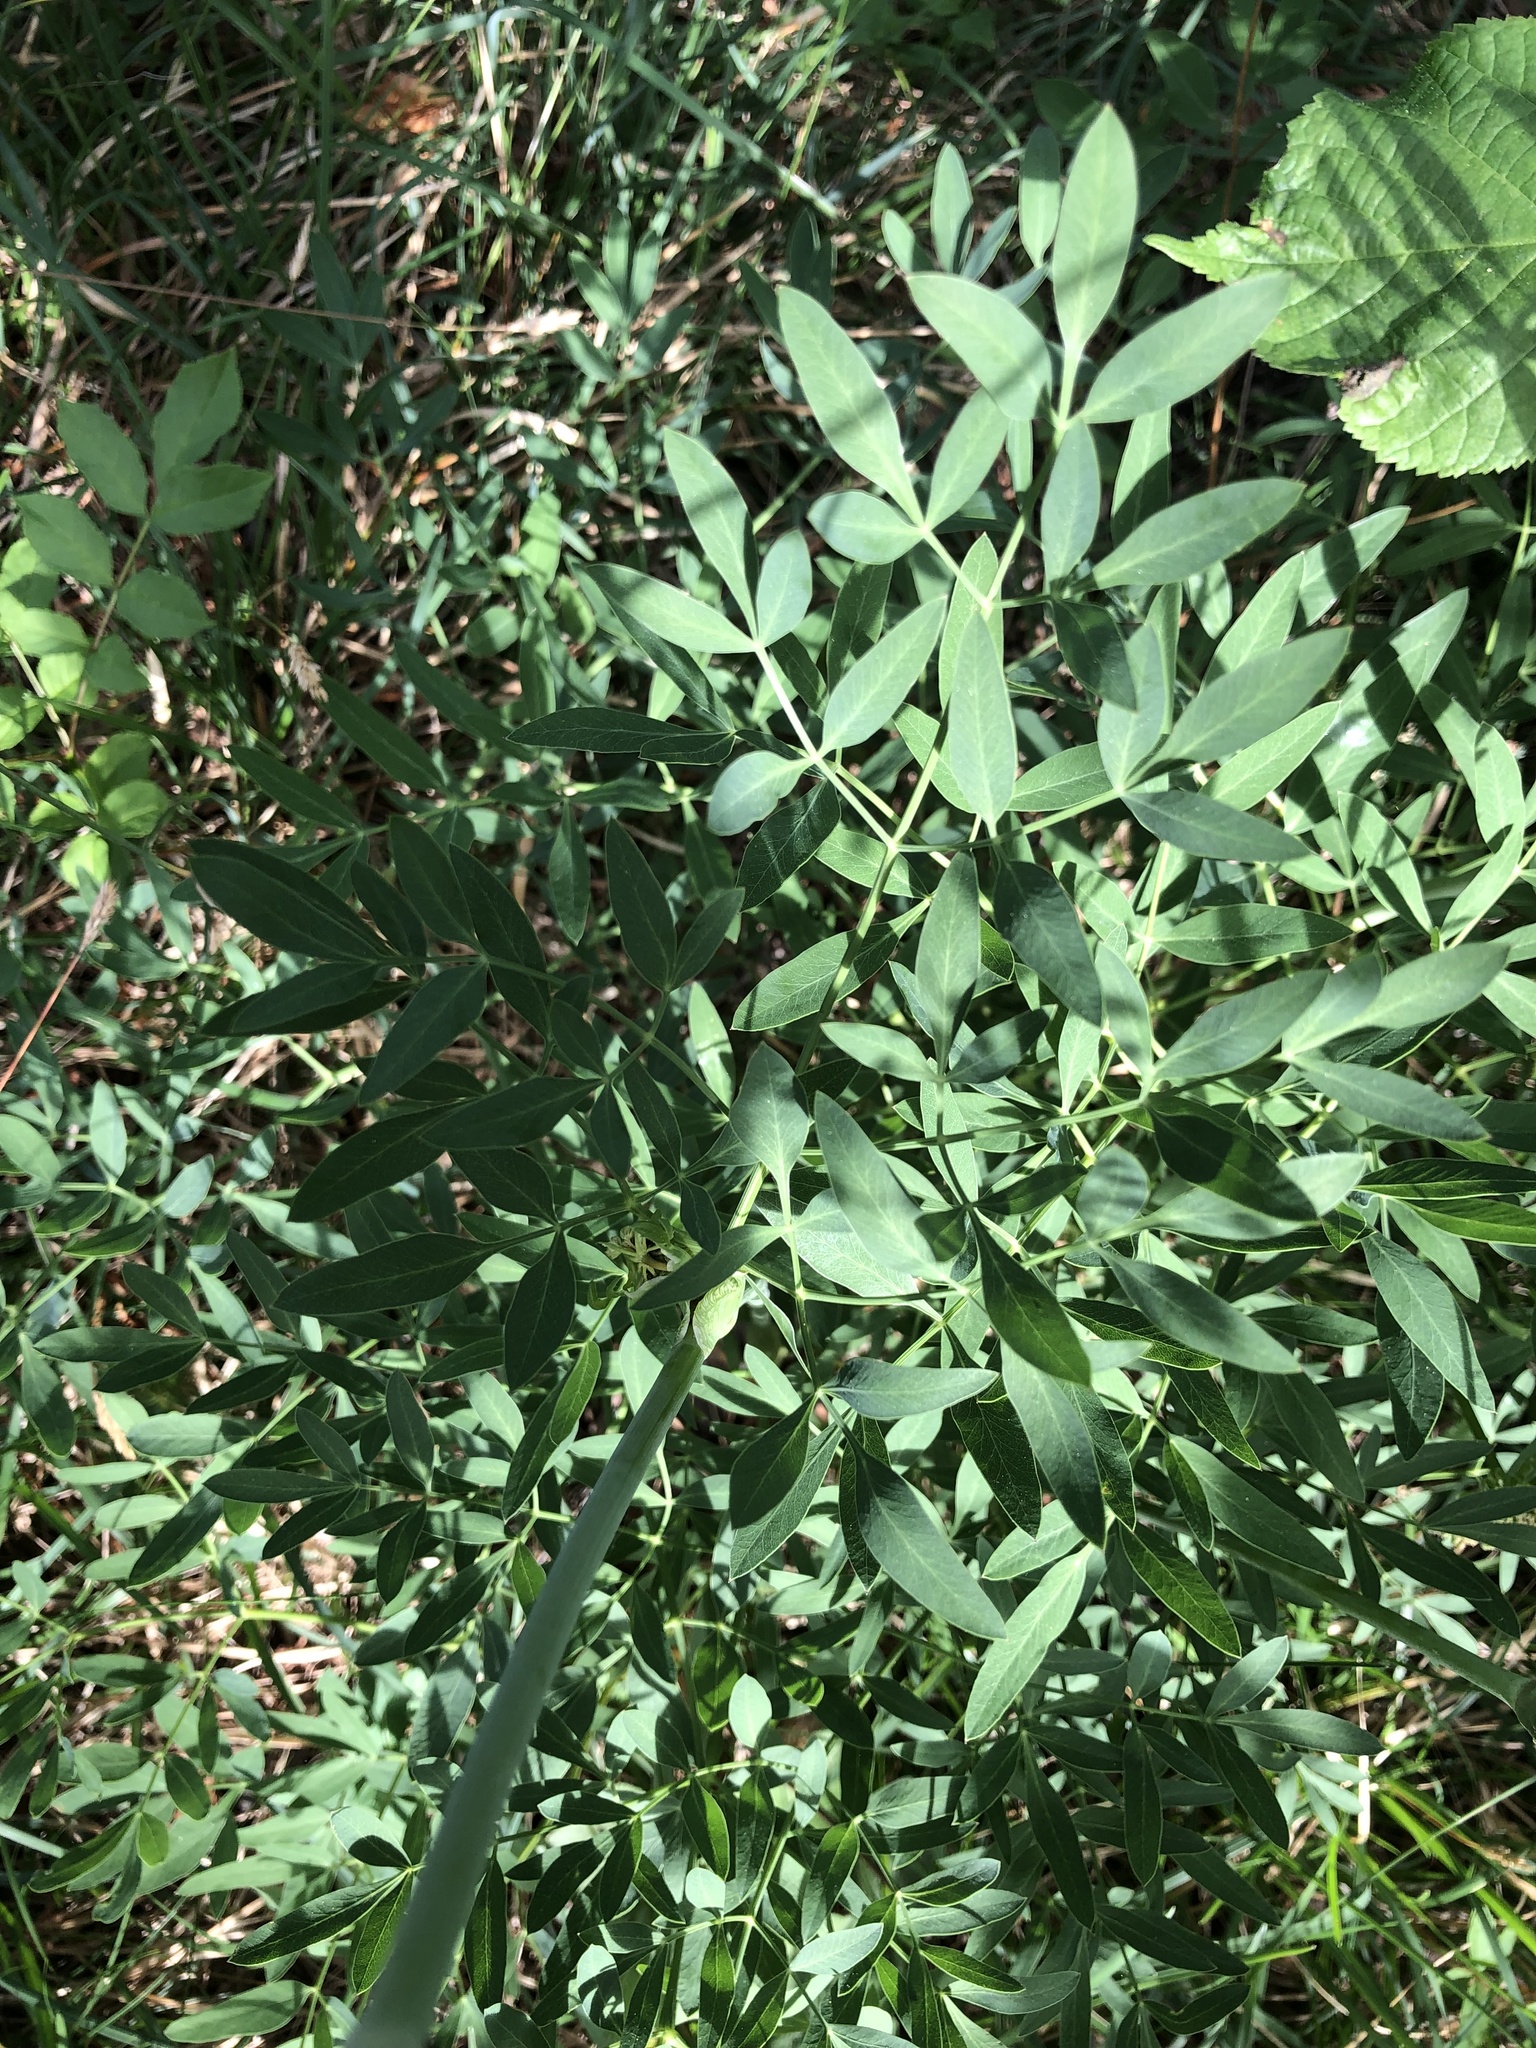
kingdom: Plantae
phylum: Tracheophyta
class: Magnoliopsida
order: Apiales
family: Apiaceae
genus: Siler
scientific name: Siler montanum
